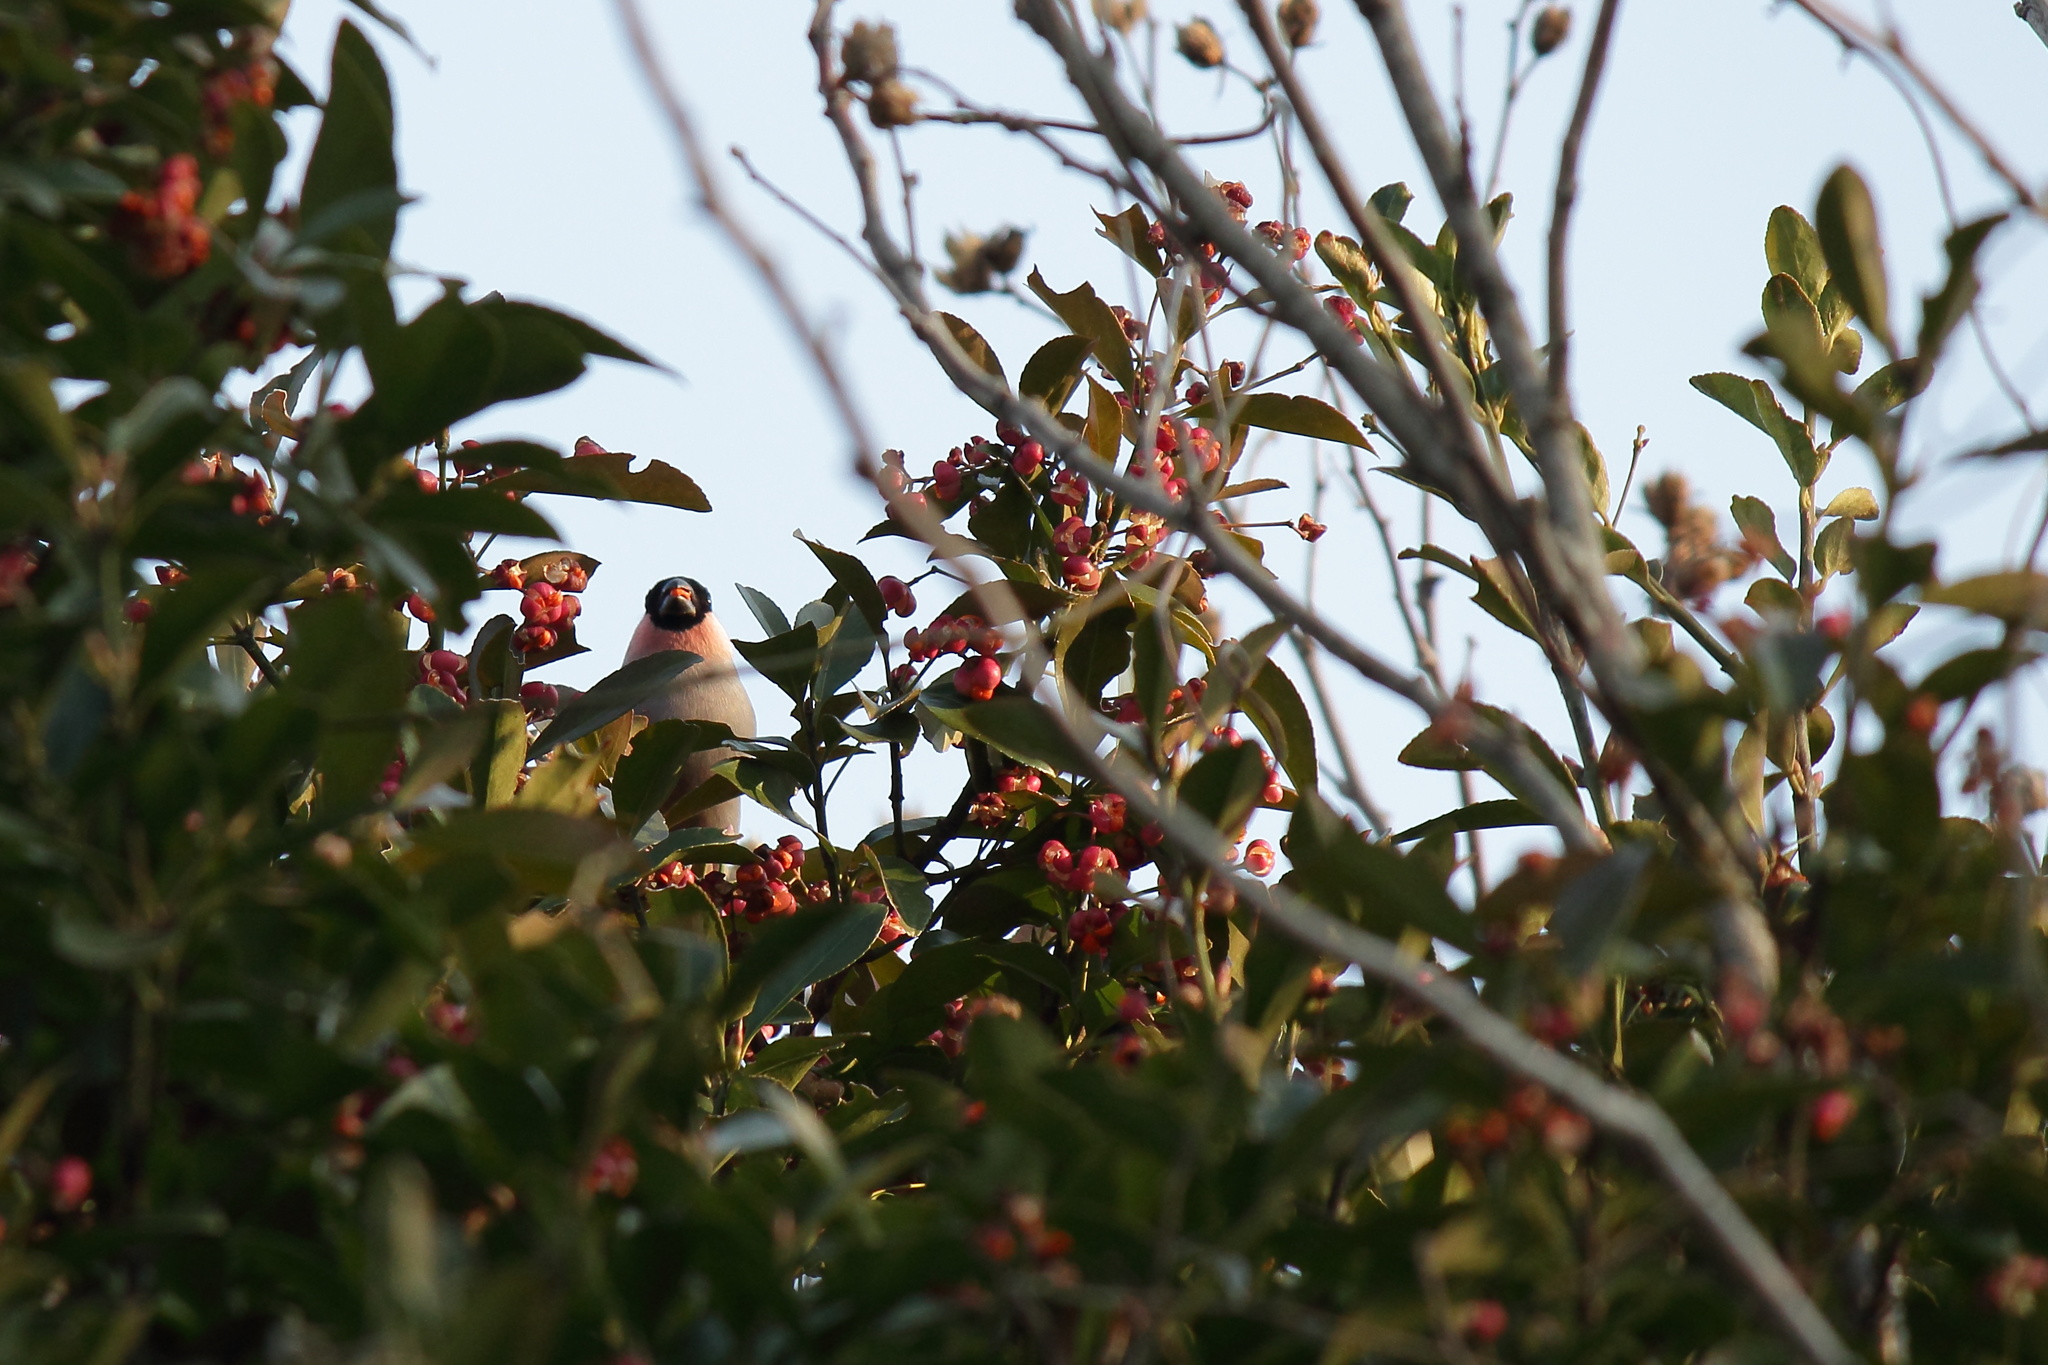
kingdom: Plantae
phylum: Tracheophyta
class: Magnoliopsida
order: Celastrales
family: Celastraceae
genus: Euonymus
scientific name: Euonymus japonicus
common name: Japanese spindletree
